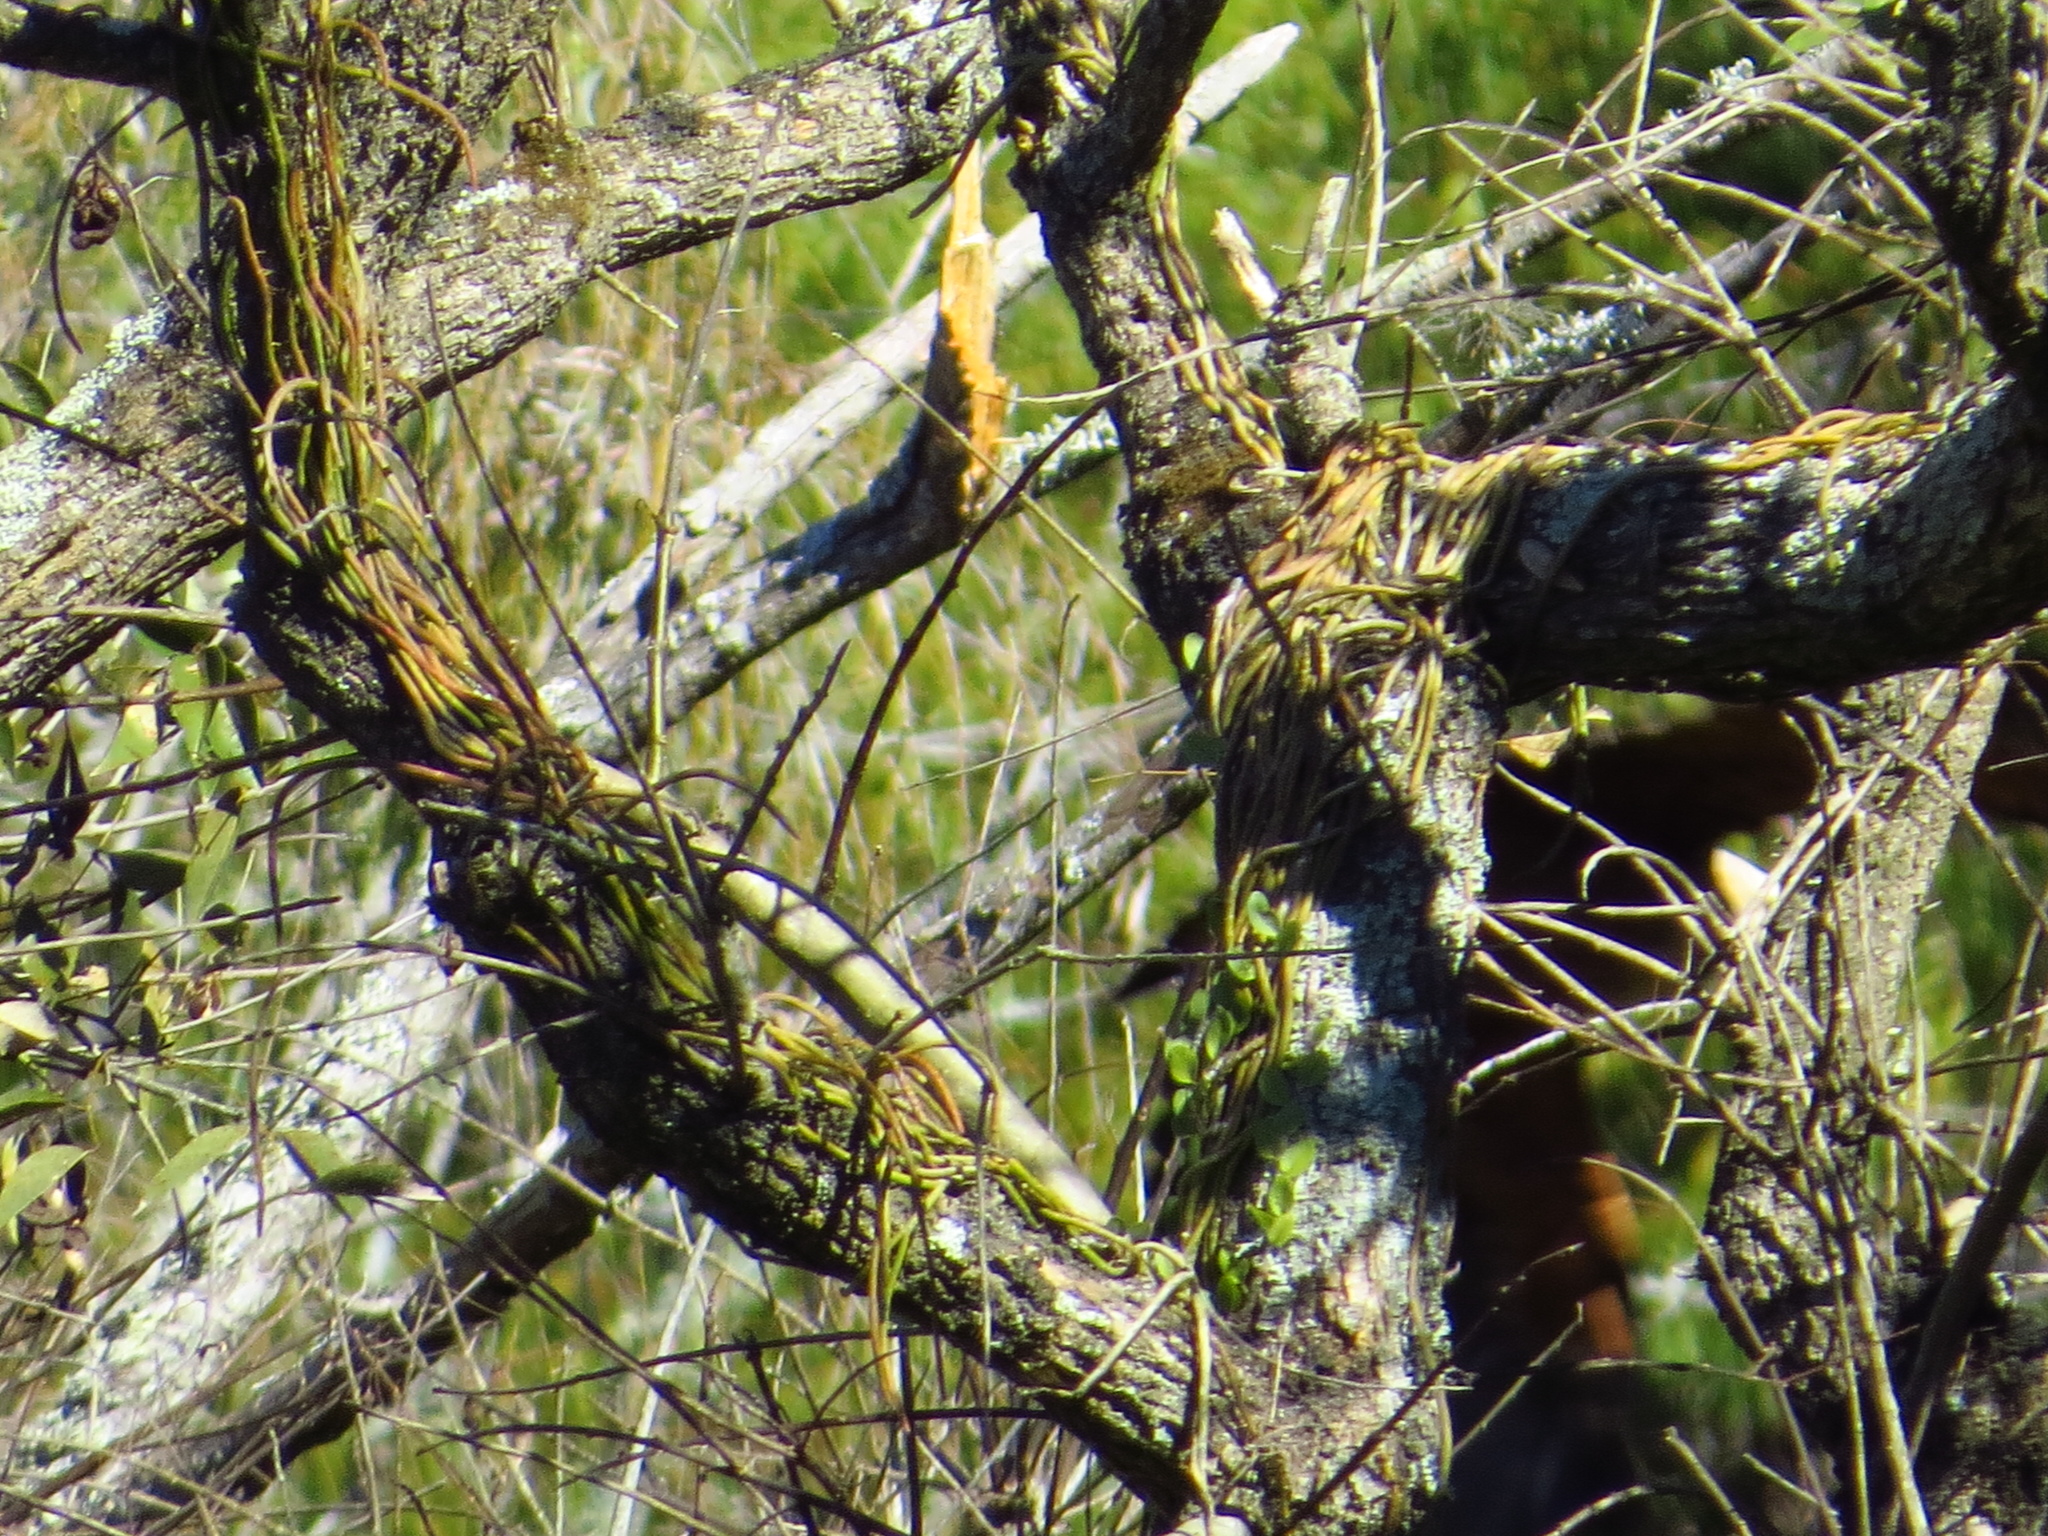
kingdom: Plantae
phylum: Tracheophyta
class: Magnoliopsida
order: Fabales
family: Fabaceae
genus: Erythrina
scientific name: Erythrina crista-galli
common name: Cockspur coral tree
